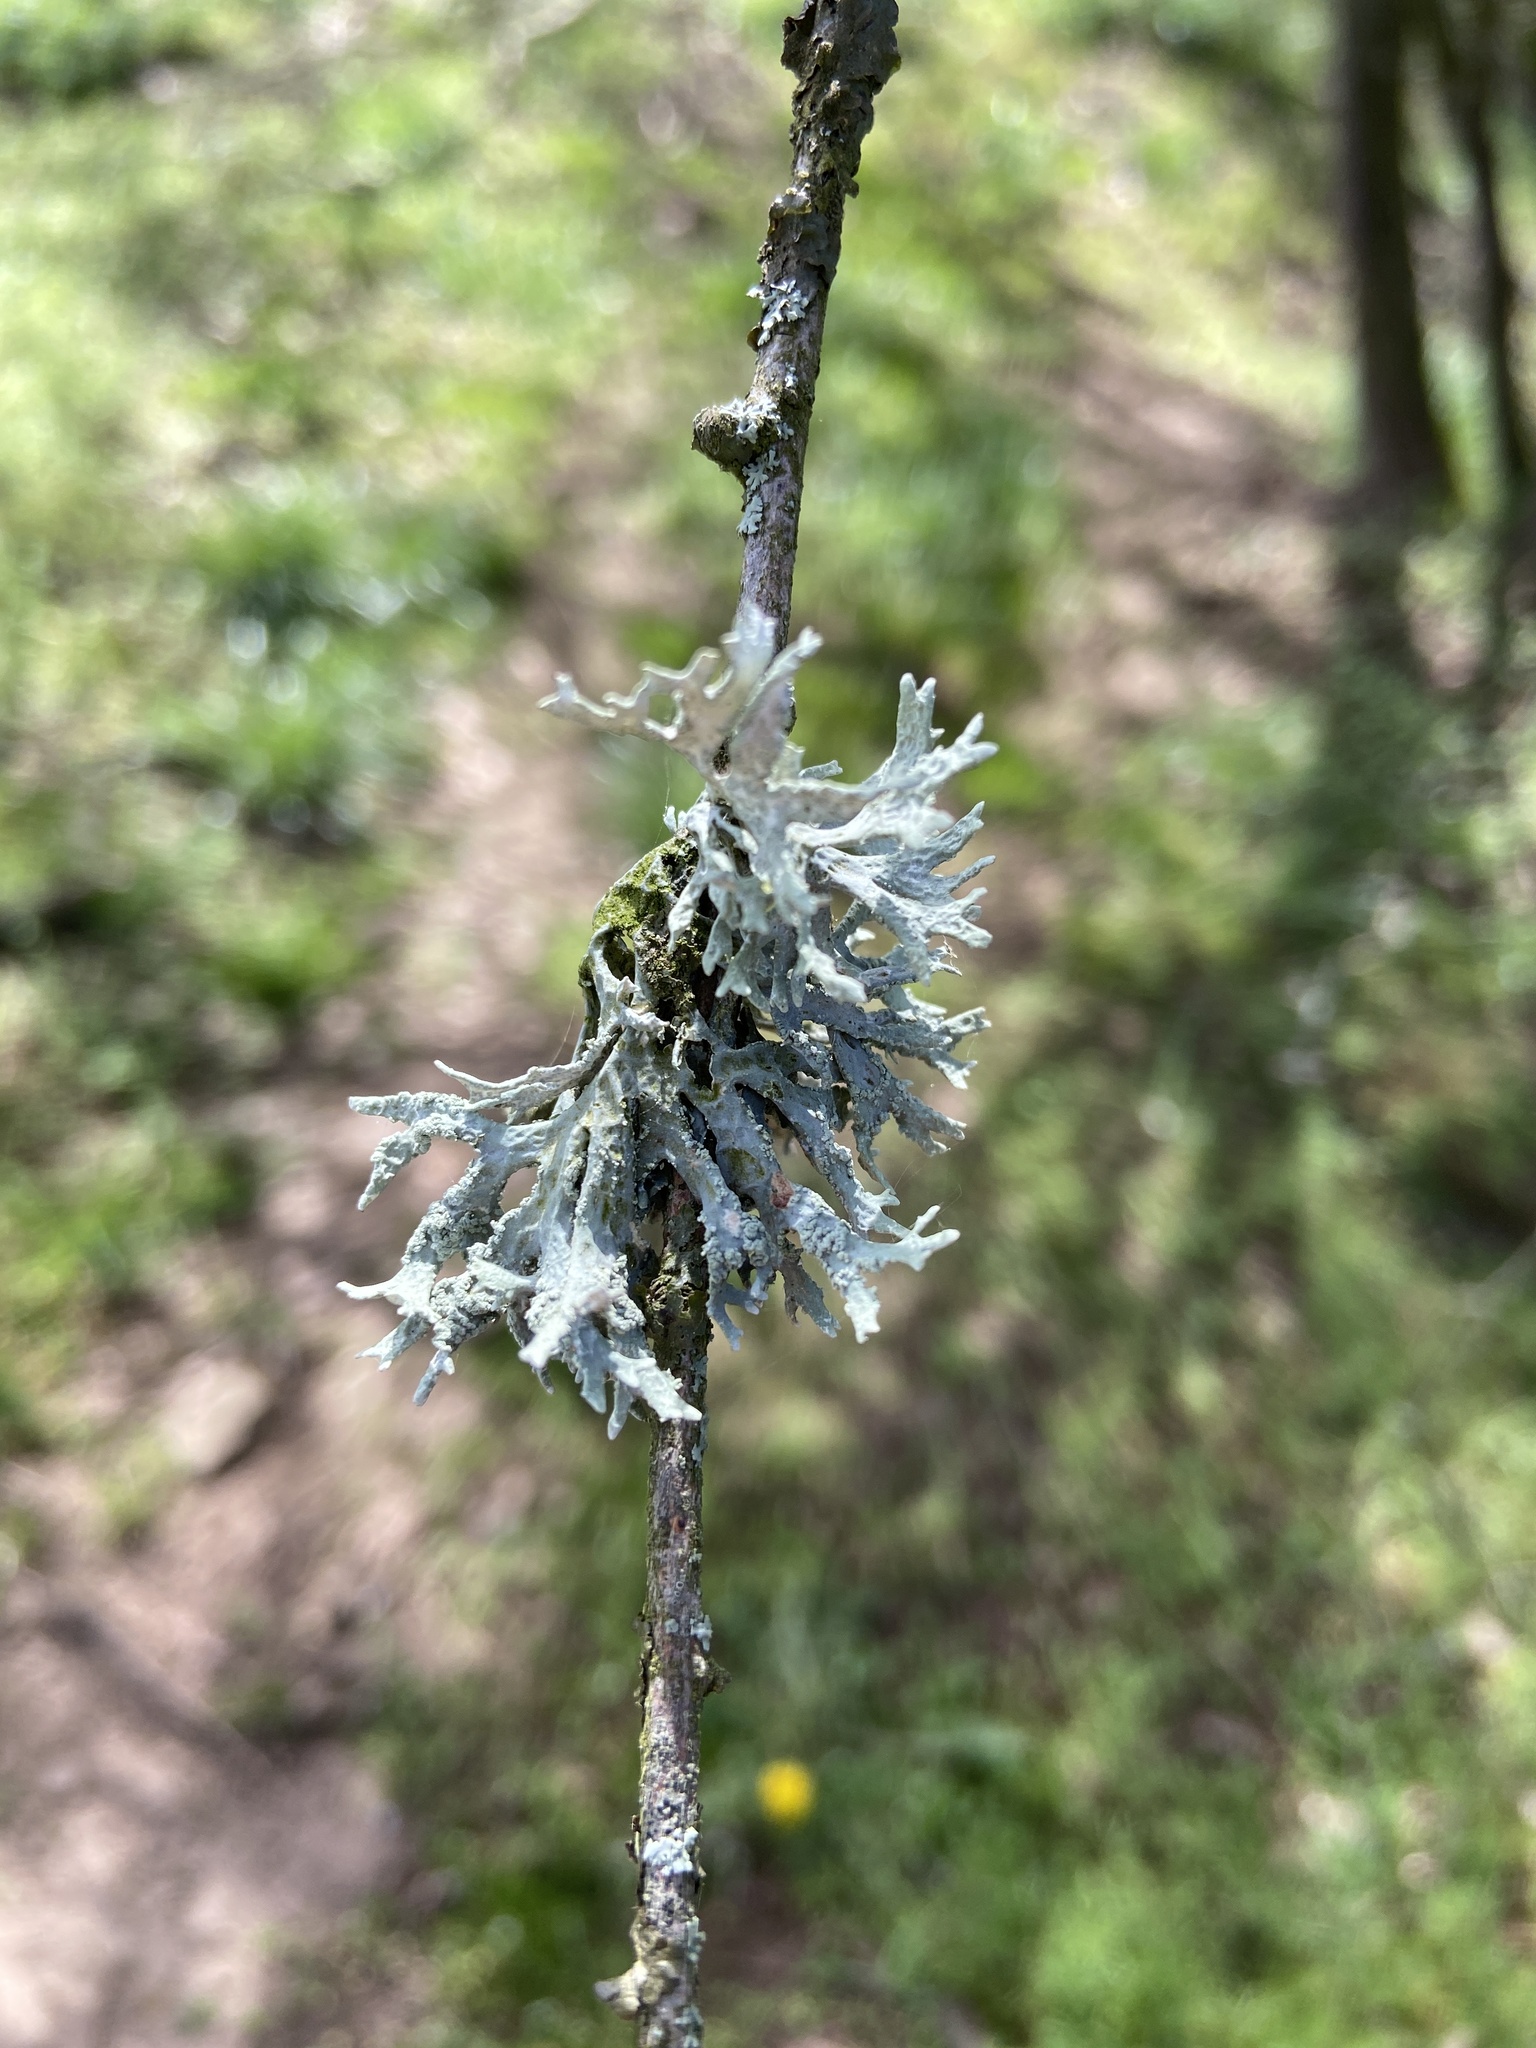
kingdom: Fungi
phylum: Ascomycota
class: Lecanoromycetes
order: Lecanorales
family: Parmeliaceae
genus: Evernia
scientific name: Evernia prunastri
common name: Oak moss
